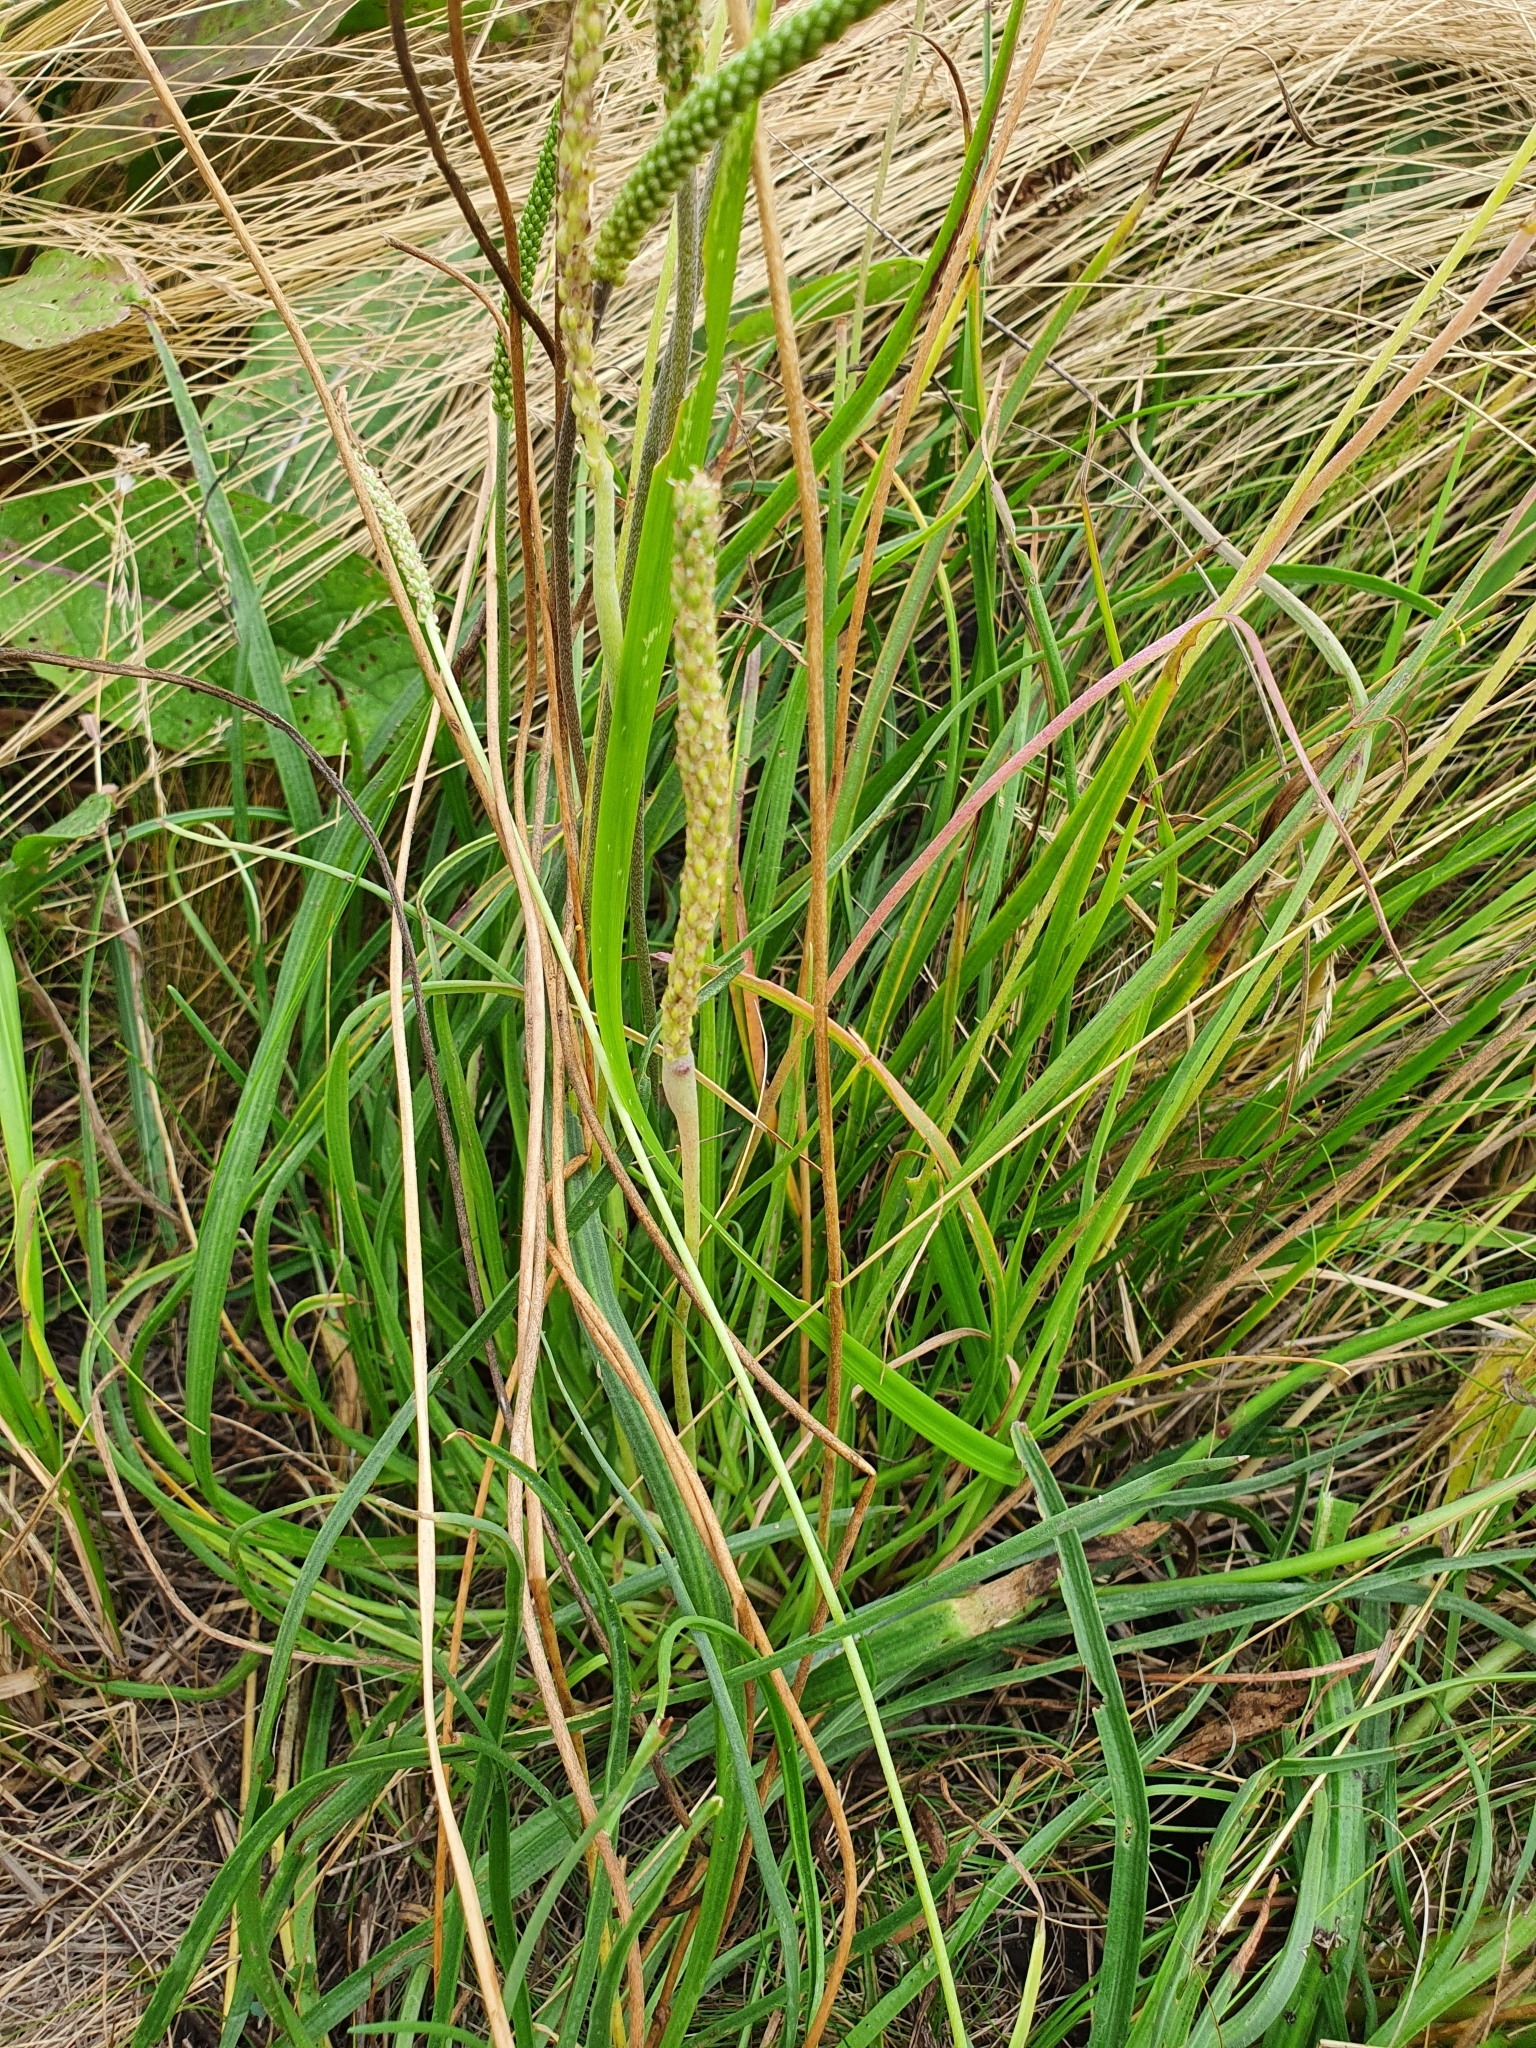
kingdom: Plantae
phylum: Tracheophyta
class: Magnoliopsida
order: Lamiales
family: Plantaginaceae
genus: Plantago
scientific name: Plantago salsa
